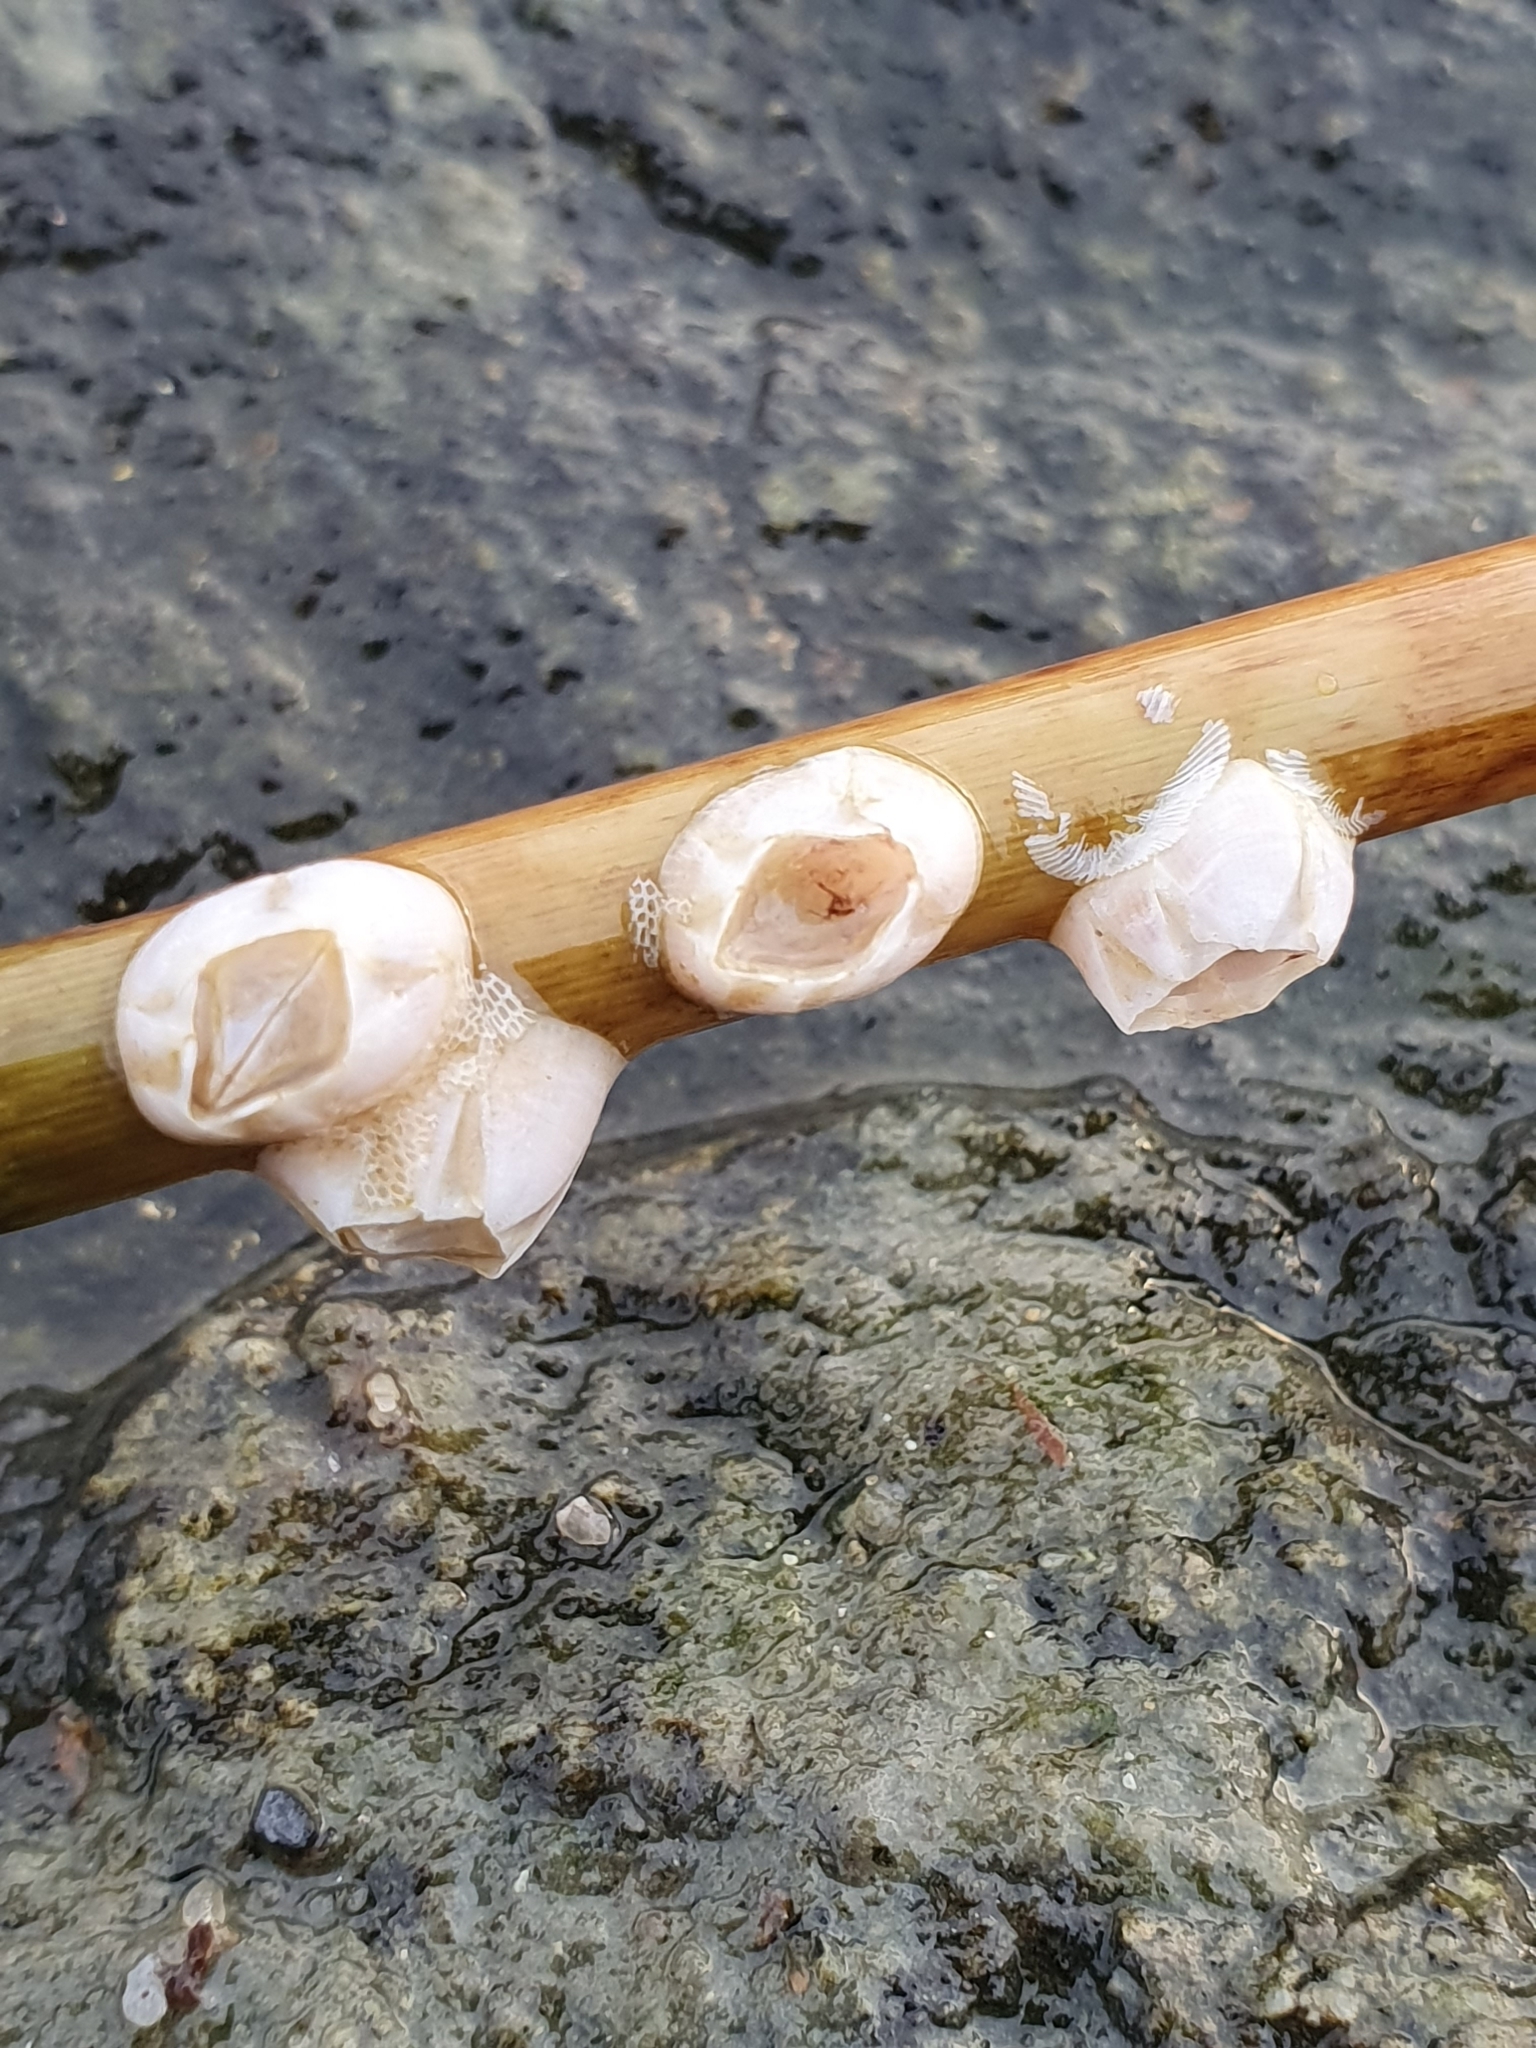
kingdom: Animalia
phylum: Arthropoda
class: Maxillopoda
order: Sessilia
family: Balanidae
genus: Amphibalanus
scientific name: Amphibalanus improvisus
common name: Bay barnacle
